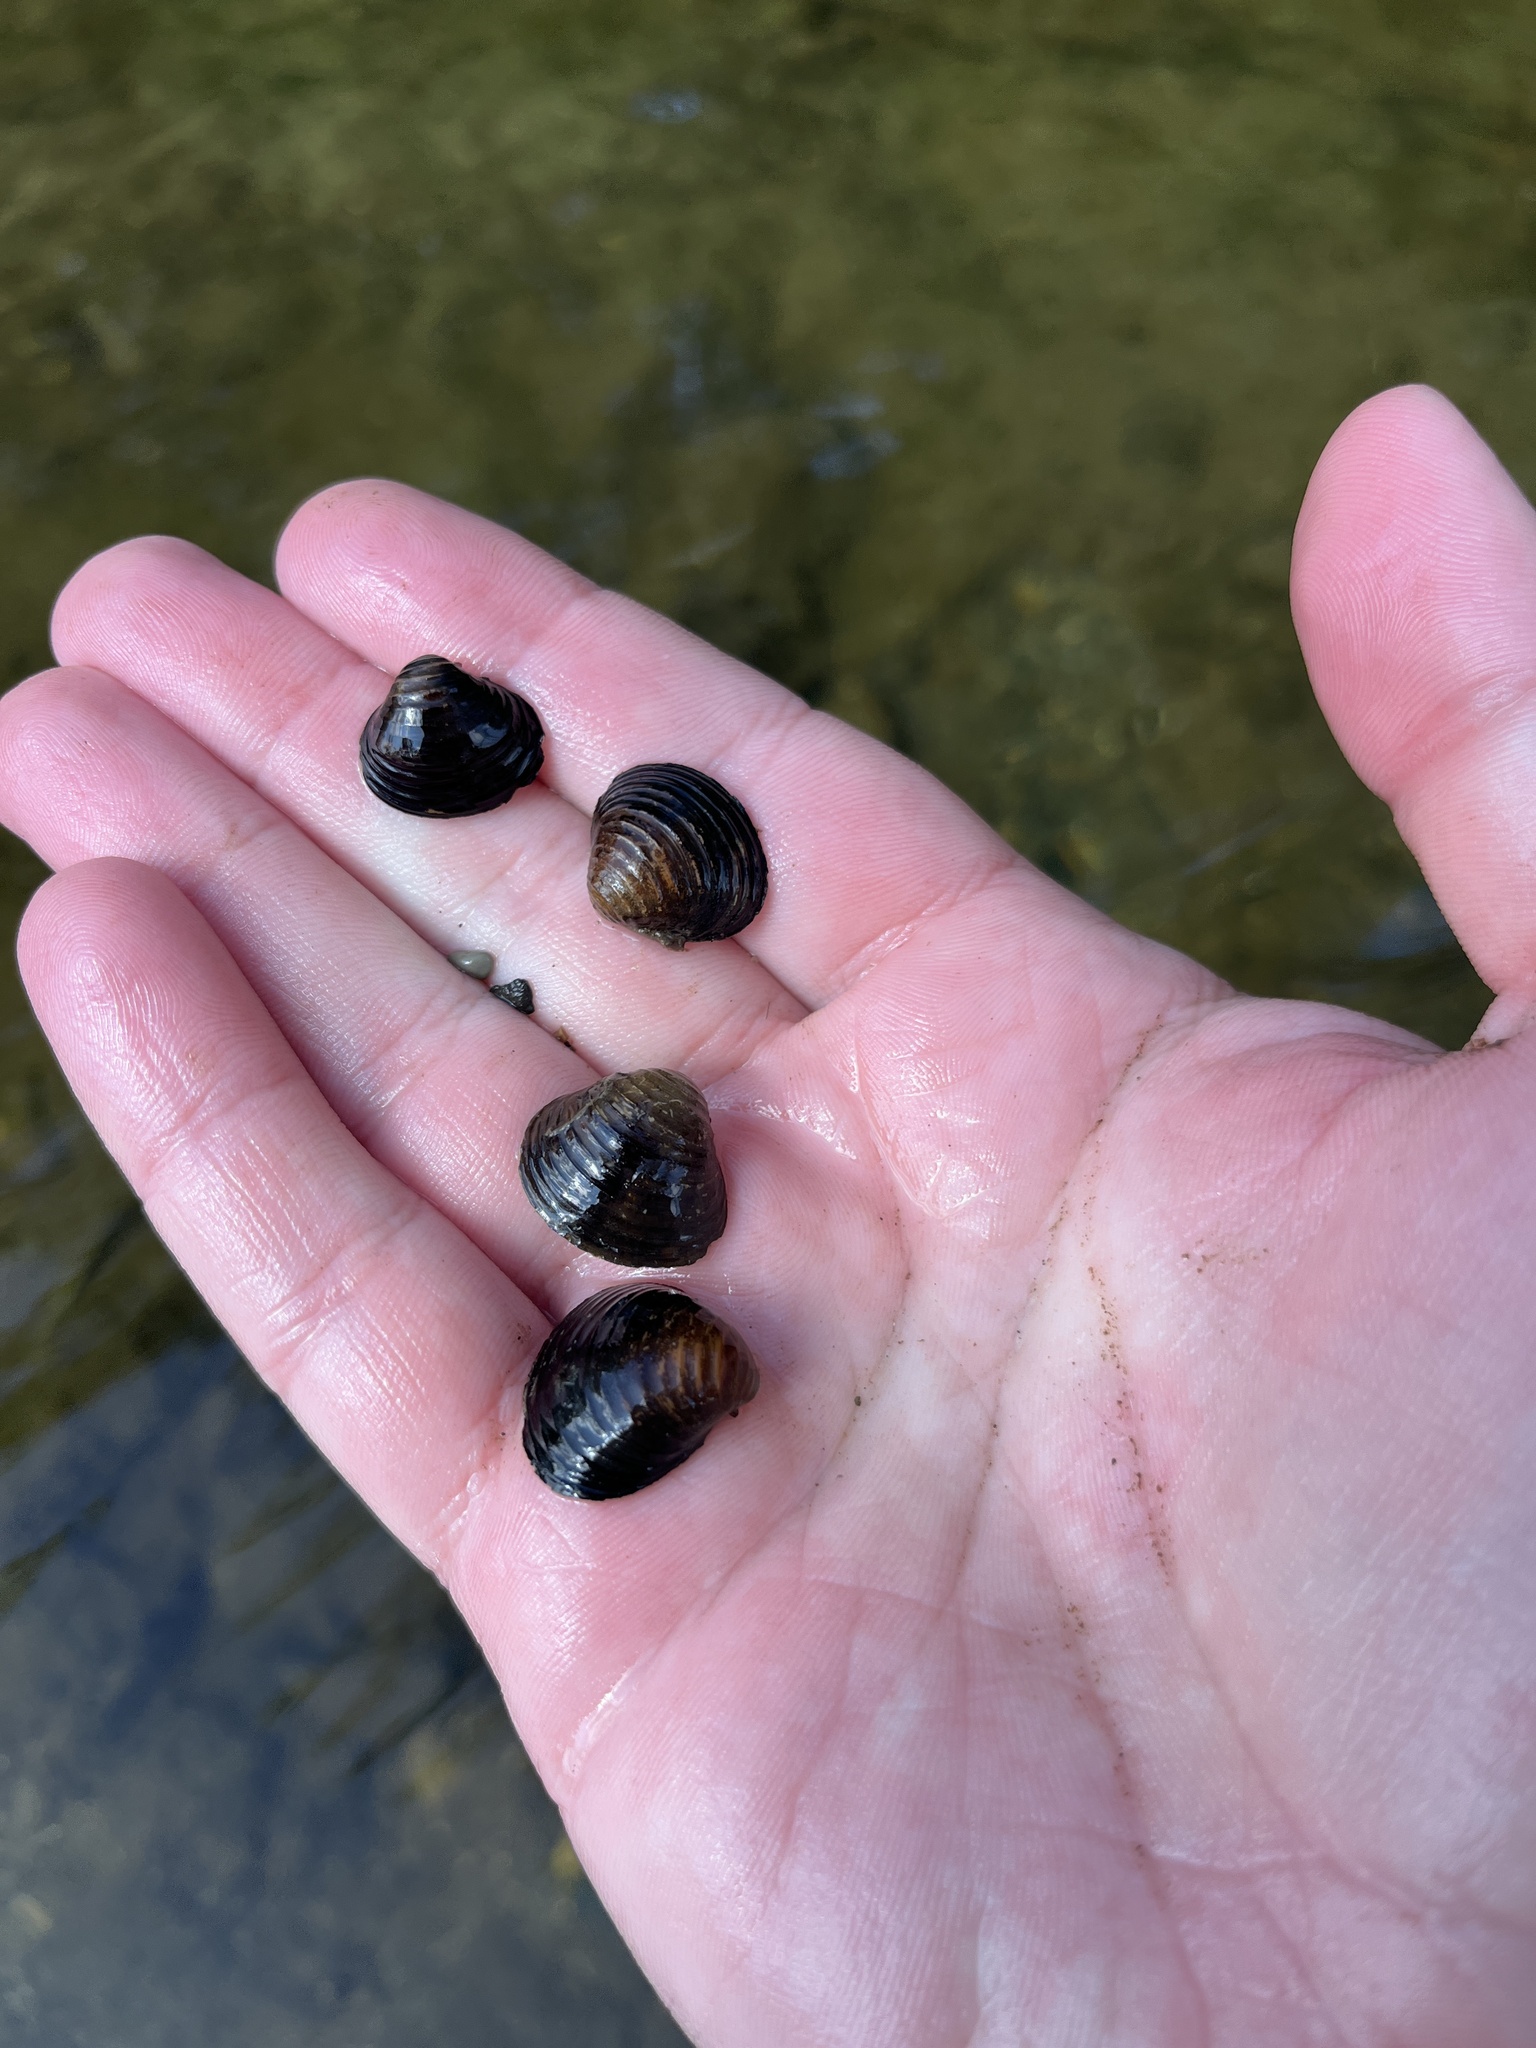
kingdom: Animalia
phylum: Mollusca
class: Bivalvia
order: Venerida
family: Cyrenidae
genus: Corbicula
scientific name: Corbicula fluminea
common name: Asian clam
